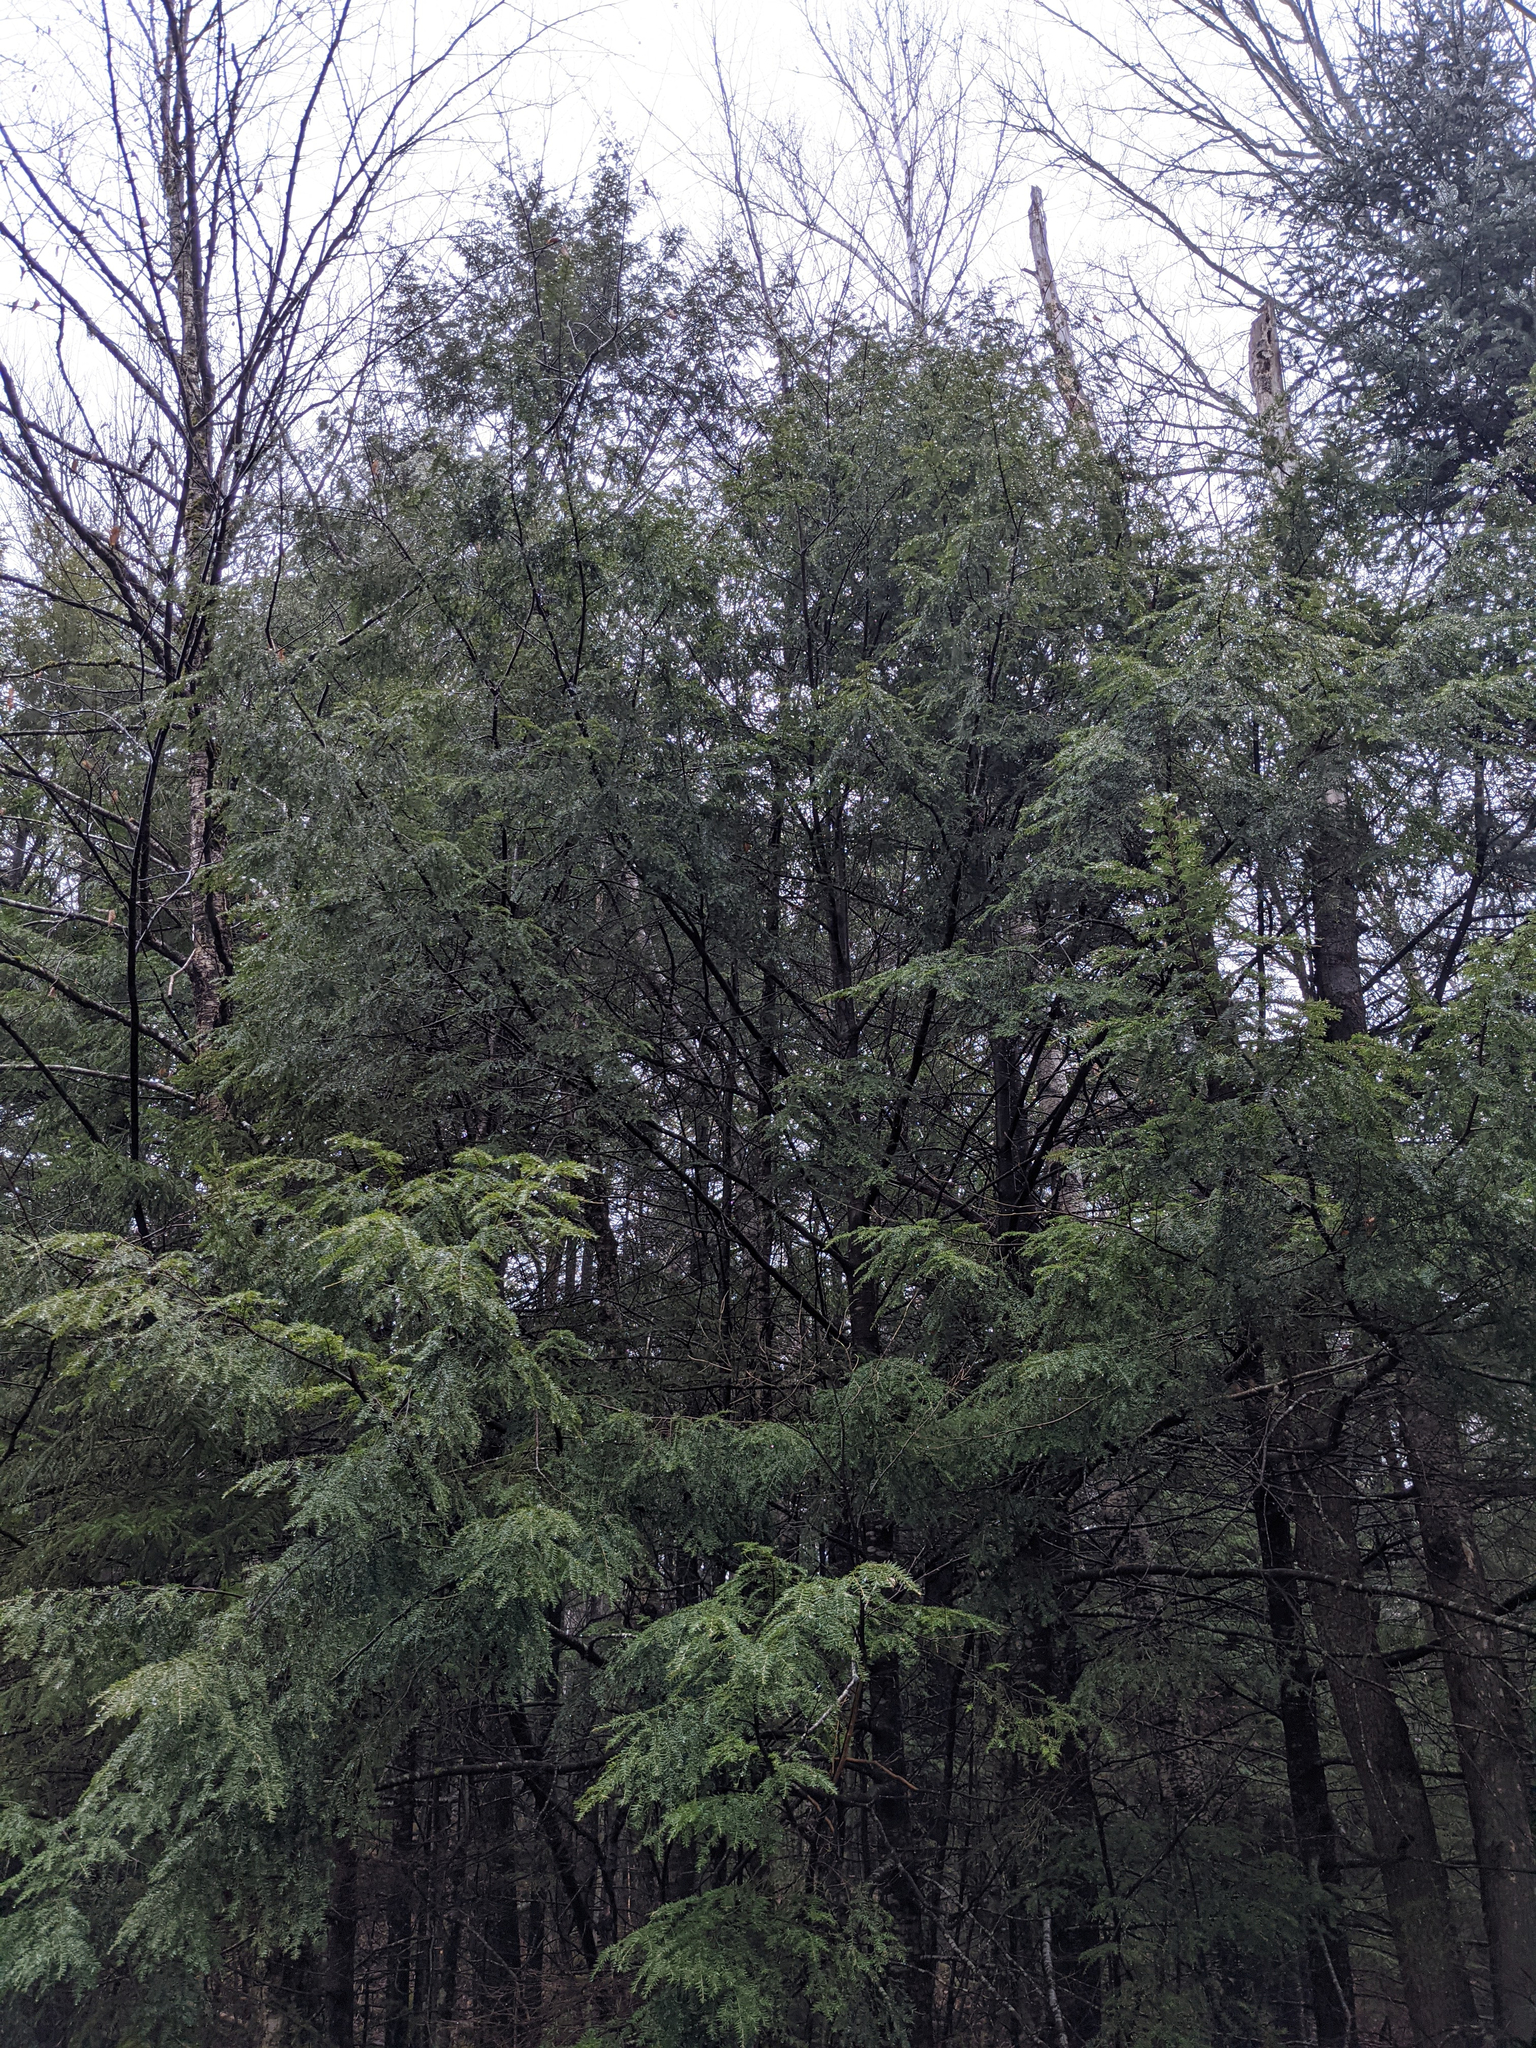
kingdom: Plantae
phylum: Tracheophyta
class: Pinopsida
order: Pinales
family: Pinaceae
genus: Tsuga
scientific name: Tsuga canadensis
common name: Eastern hemlock
